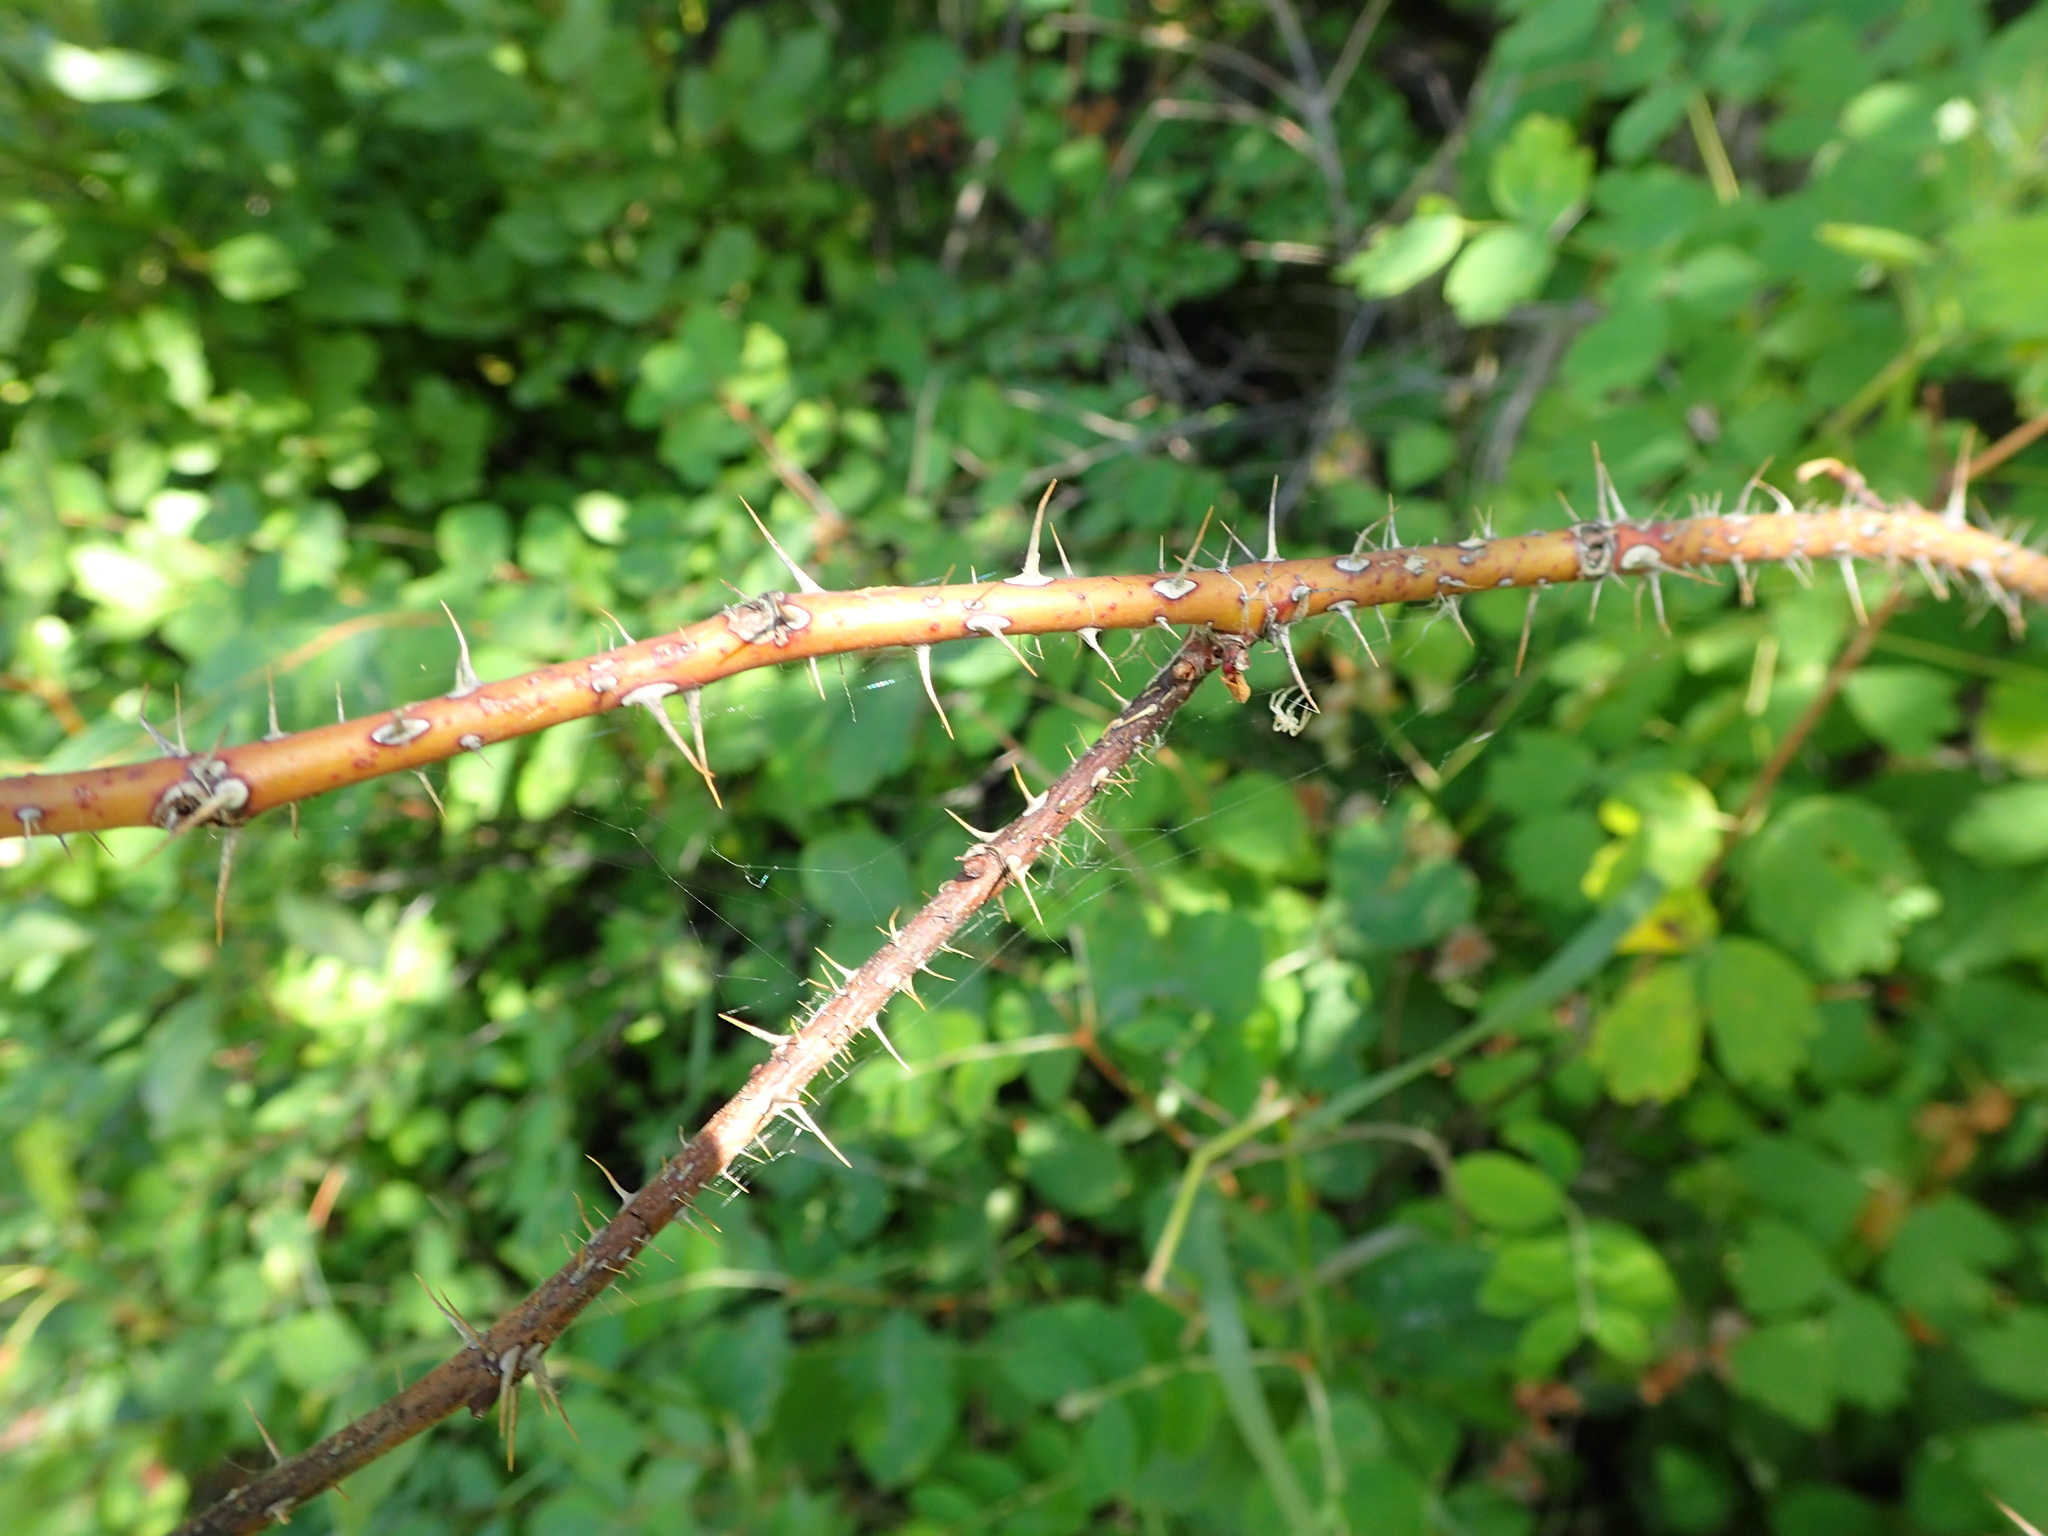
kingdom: Plantae
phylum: Tracheophyta
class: Magnoliopsida
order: Rosales
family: Rosaceae
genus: Rosa
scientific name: Rosa acicularis
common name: Prickly rose
